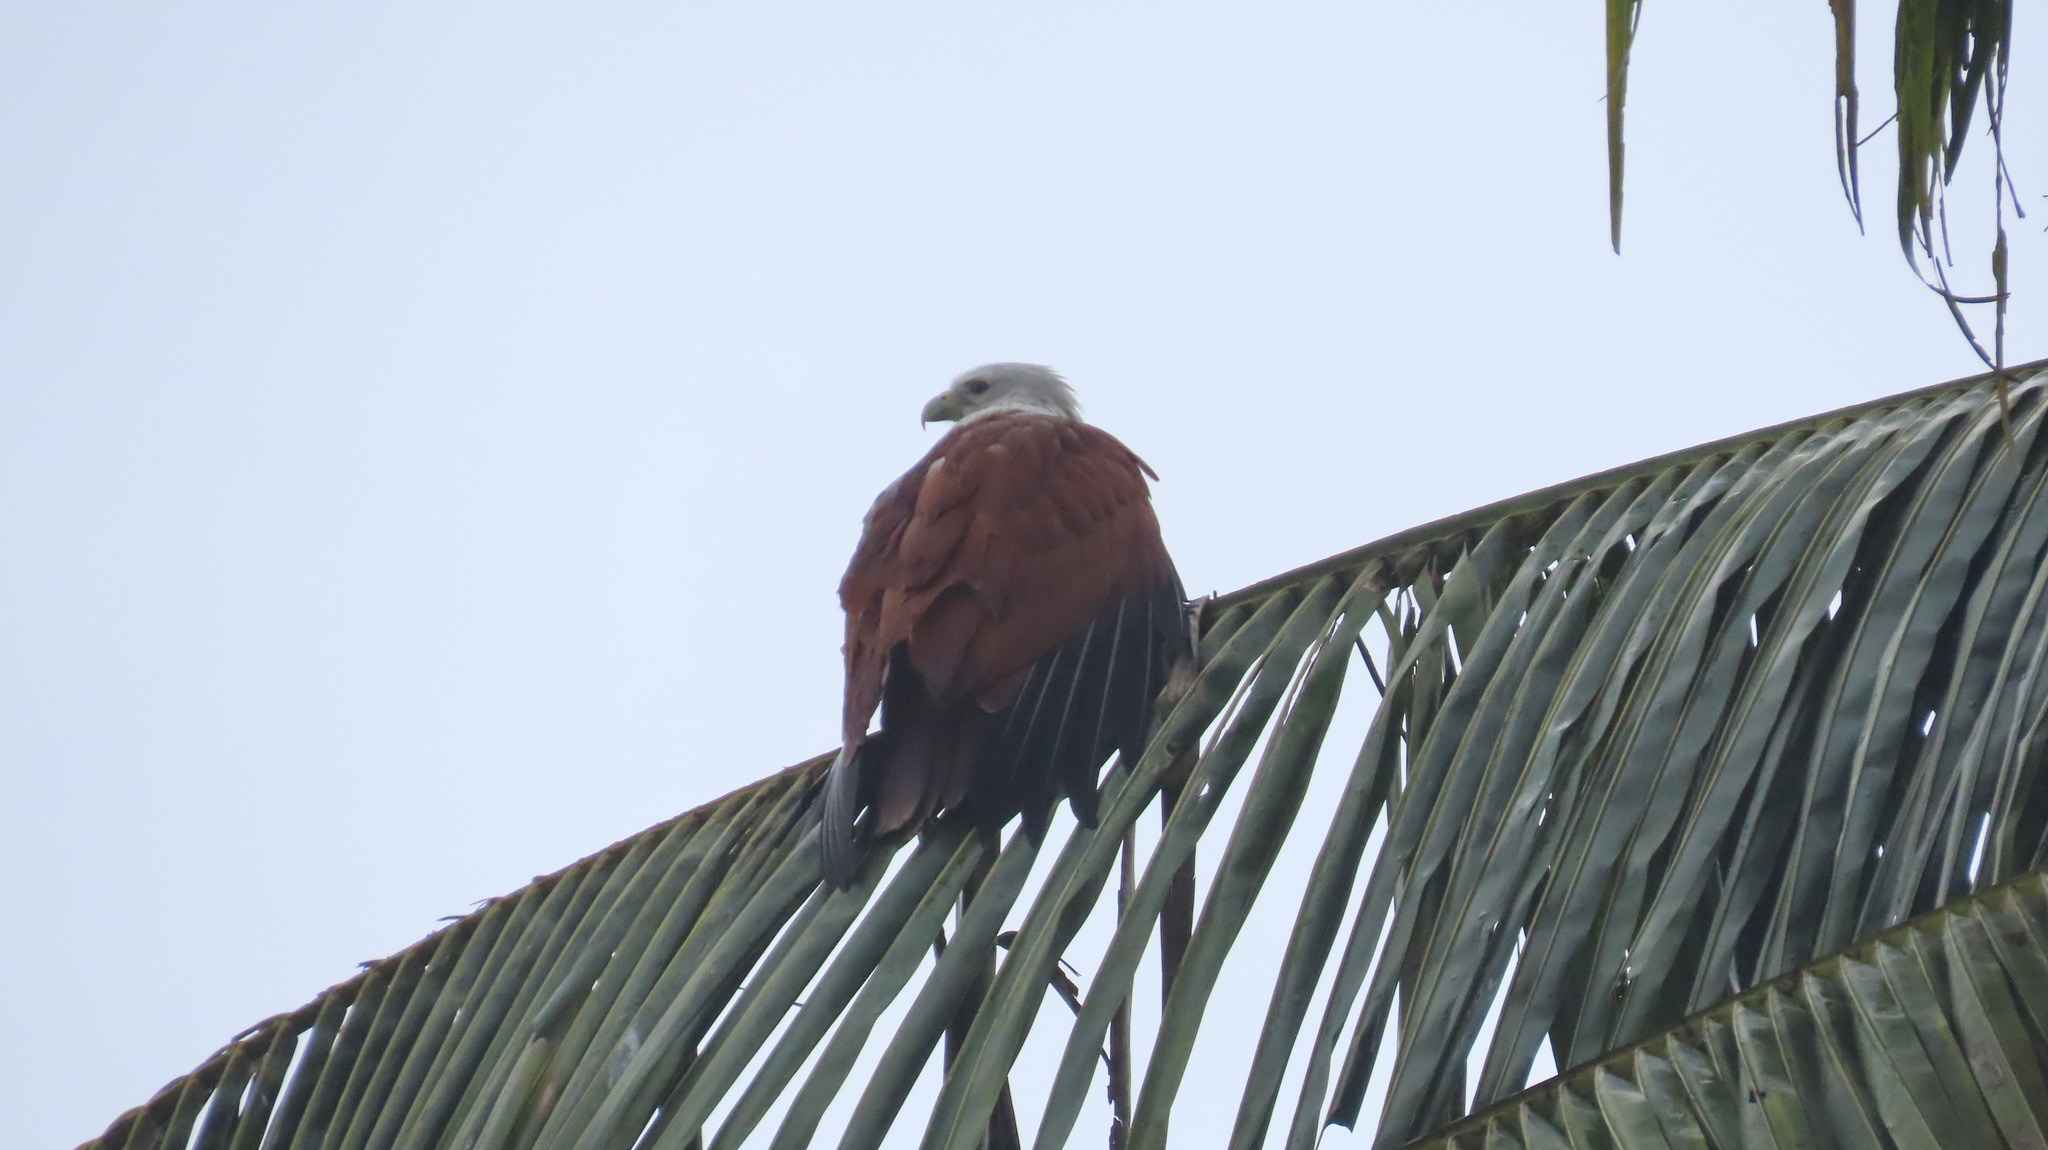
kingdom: Animalia
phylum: Chordata
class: Aves
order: Accipitriformes
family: Accipitridae
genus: Haliastur
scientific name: Haliastur indus
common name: Brahminy kite
